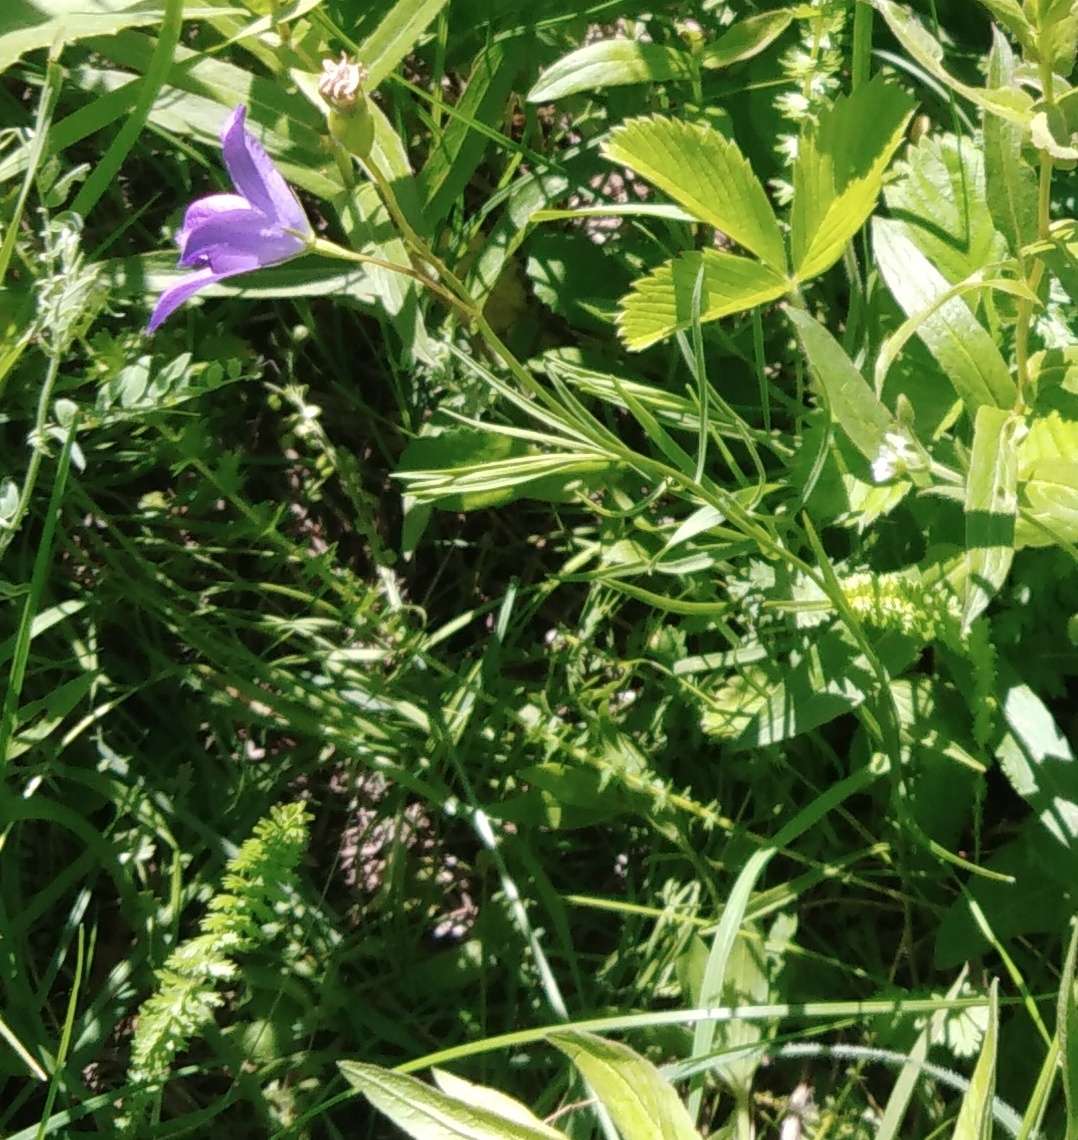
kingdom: Plantae
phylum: Tracheophyta
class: Magnoliopsida
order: Asterales
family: Campanulaceae
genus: Campanula
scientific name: Campanula stevenii
